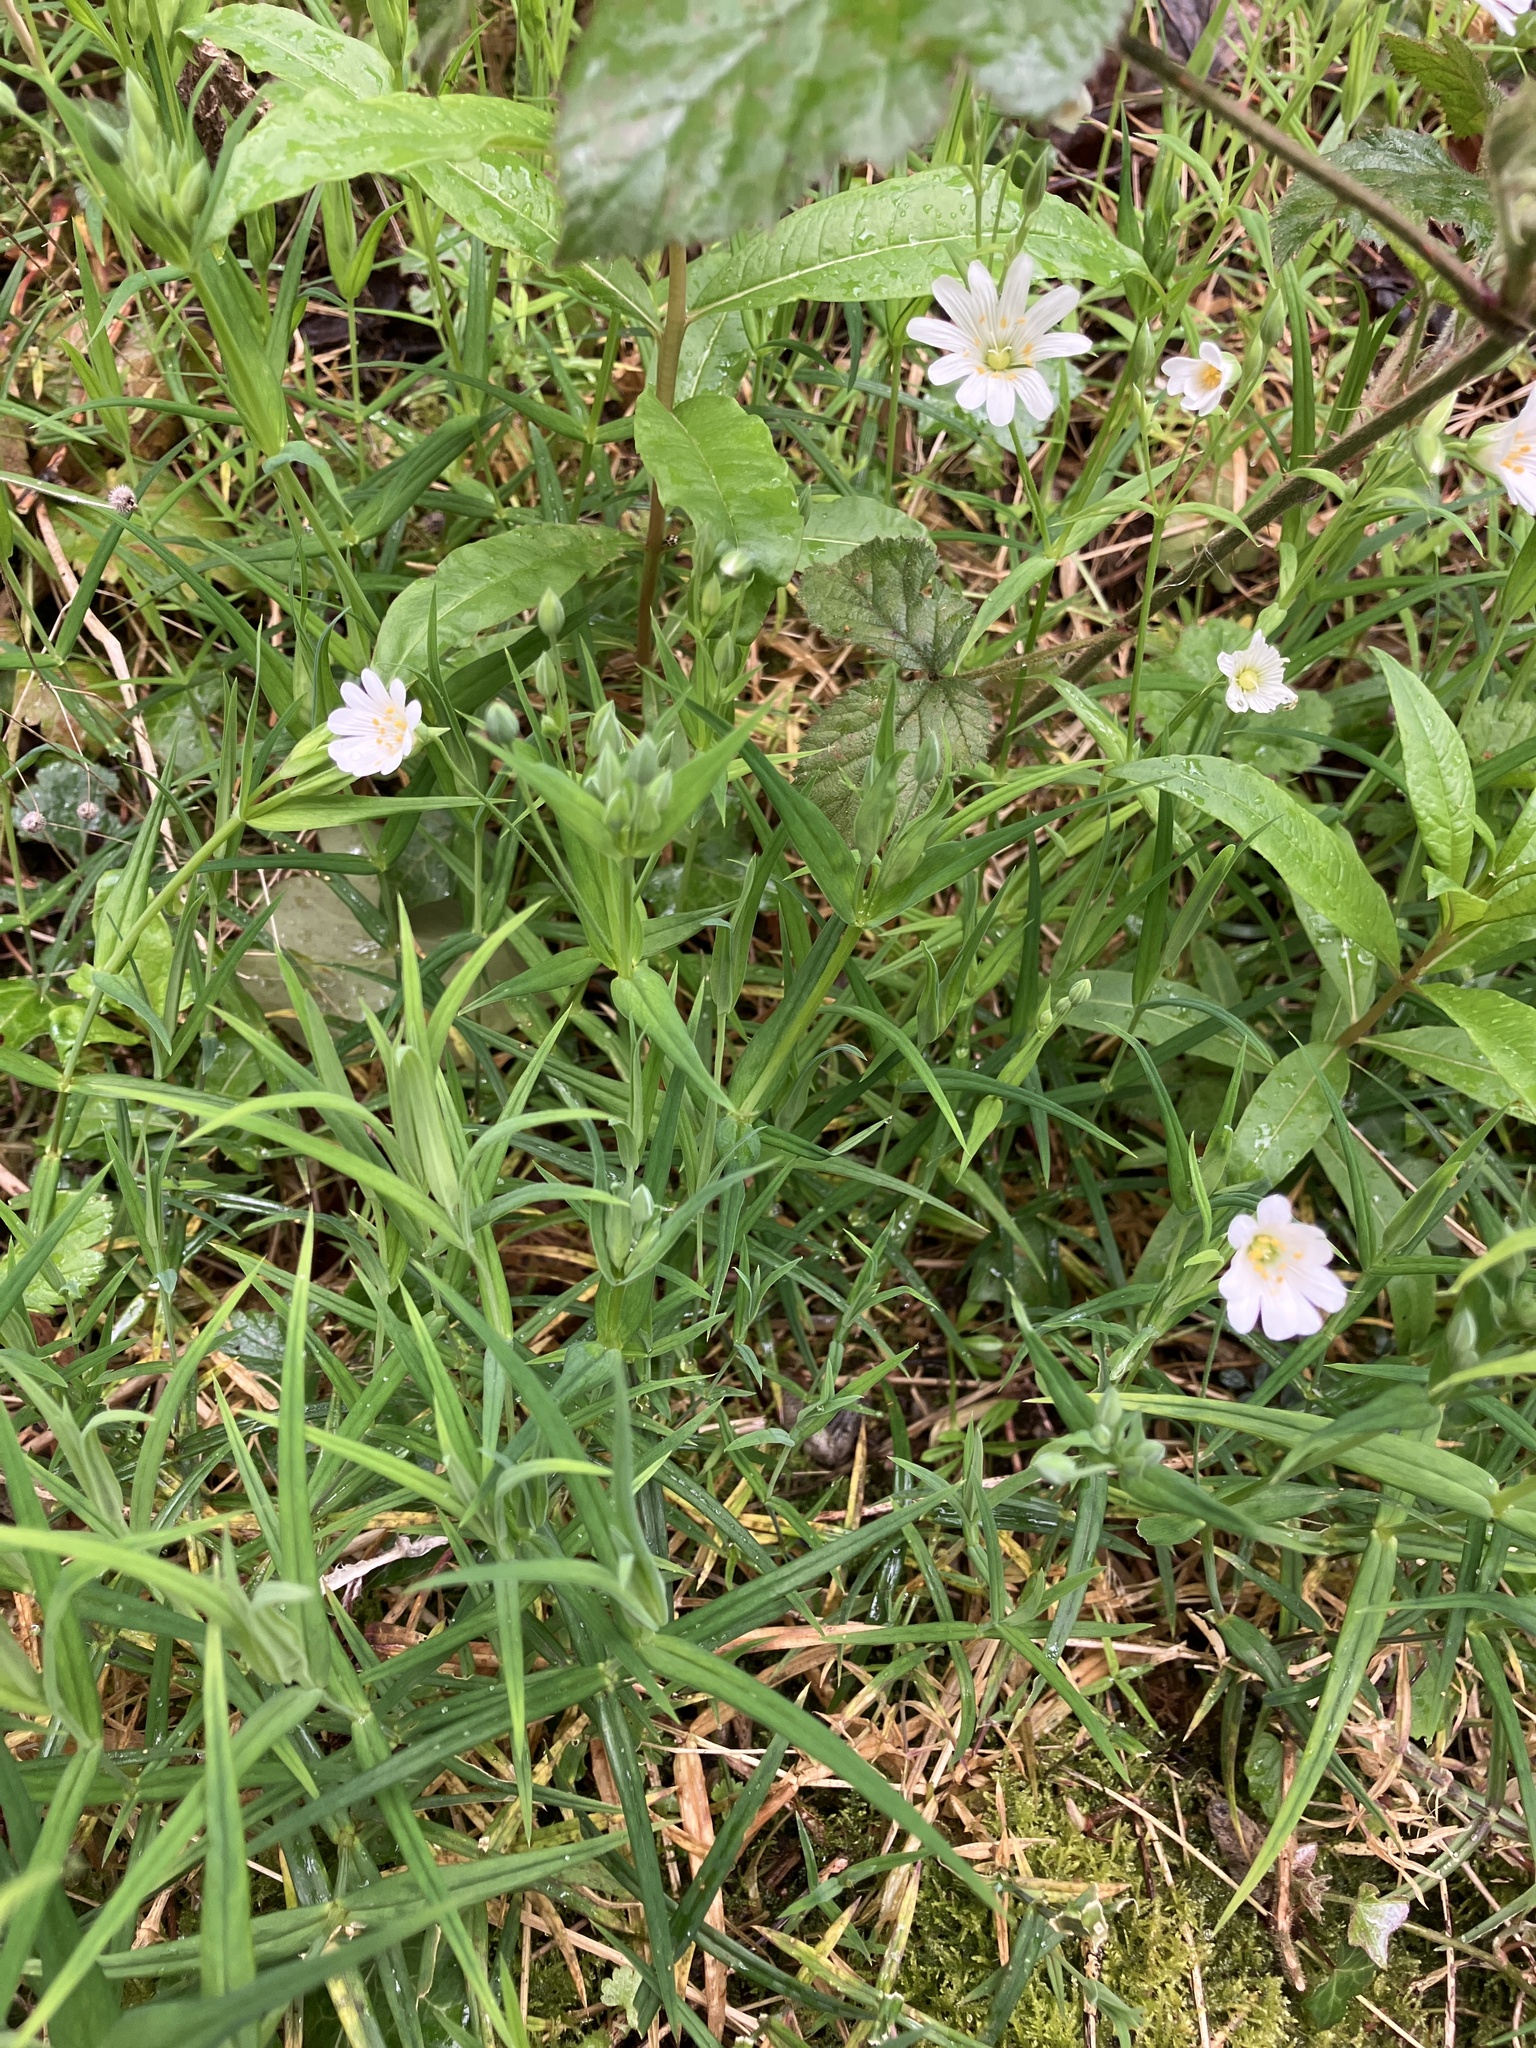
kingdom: Plantae
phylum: Tracheophyta
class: Magnoliopsida
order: Caryophyllales
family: Caryophyllaceae
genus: Rabelera
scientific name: Rabelera holostea
